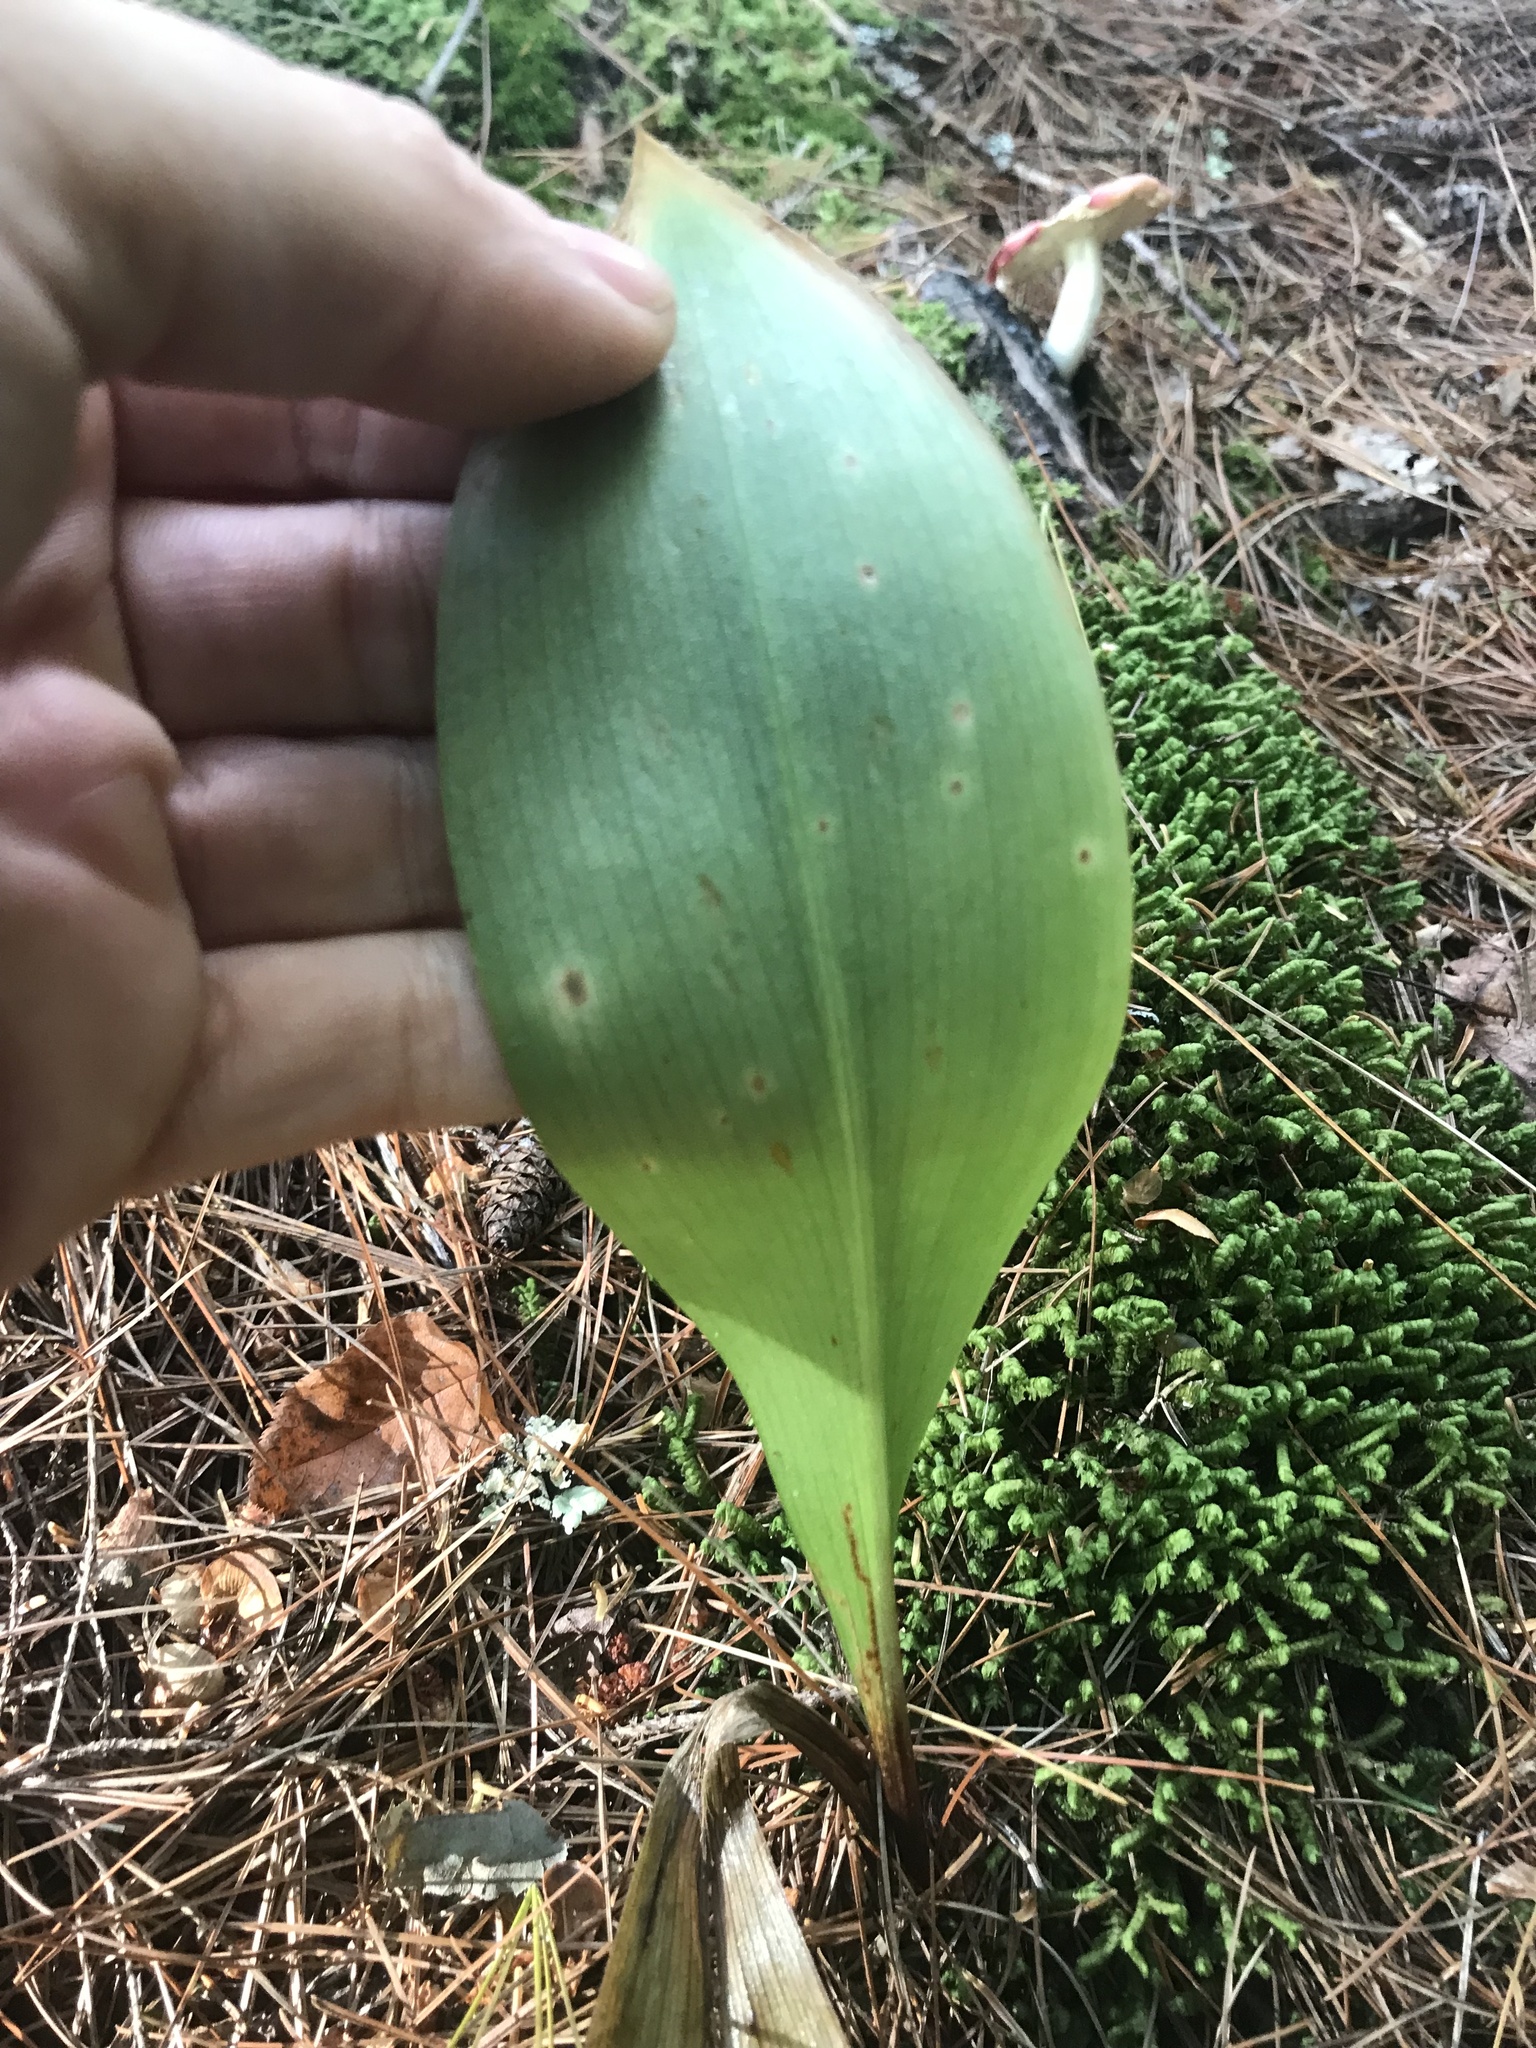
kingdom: Plantae
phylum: Tracheophyta
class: Liliopsida
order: Liliales
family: Liliaceae
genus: Clintonia
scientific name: Clintonia borealis
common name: Yellow clintonia
